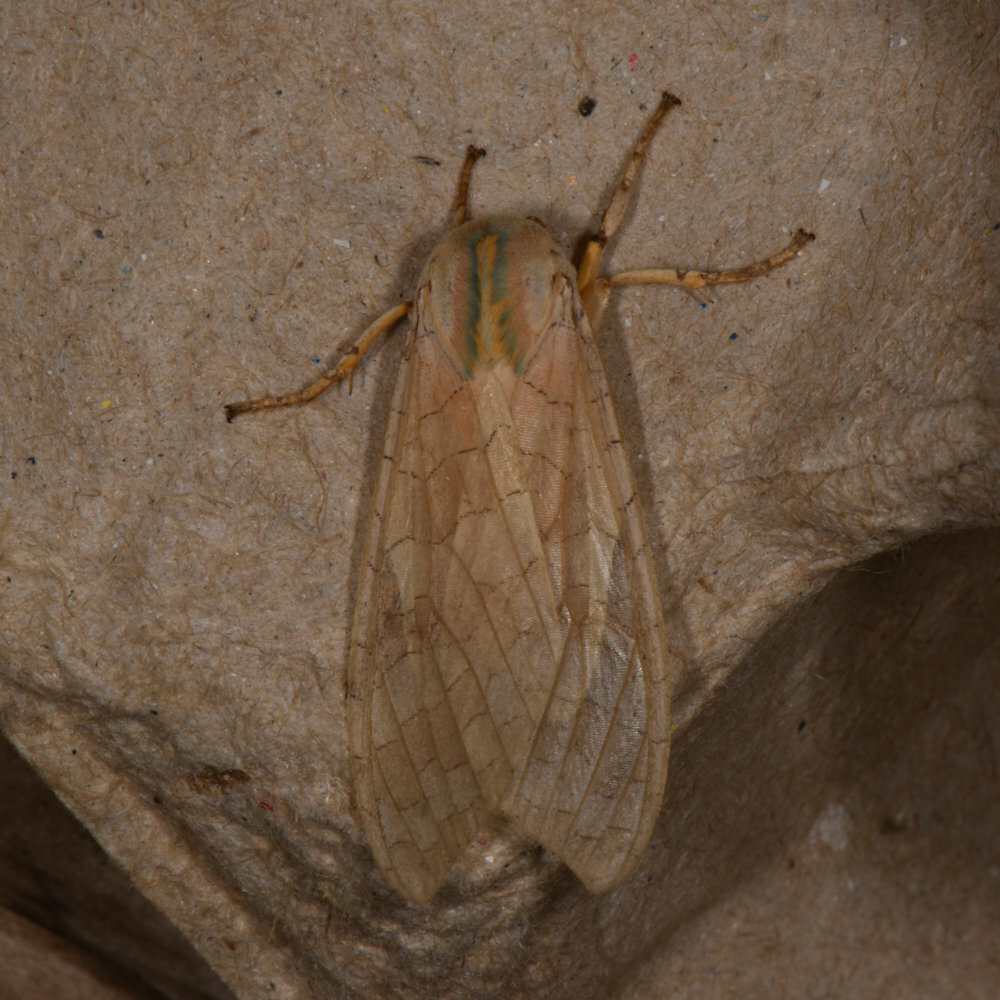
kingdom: Animalia
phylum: Arthropoda
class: Insecta
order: Lepidoptera
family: Erebidae
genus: Halysidota
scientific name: Halysidota tessellaris
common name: Banded tussock moth
